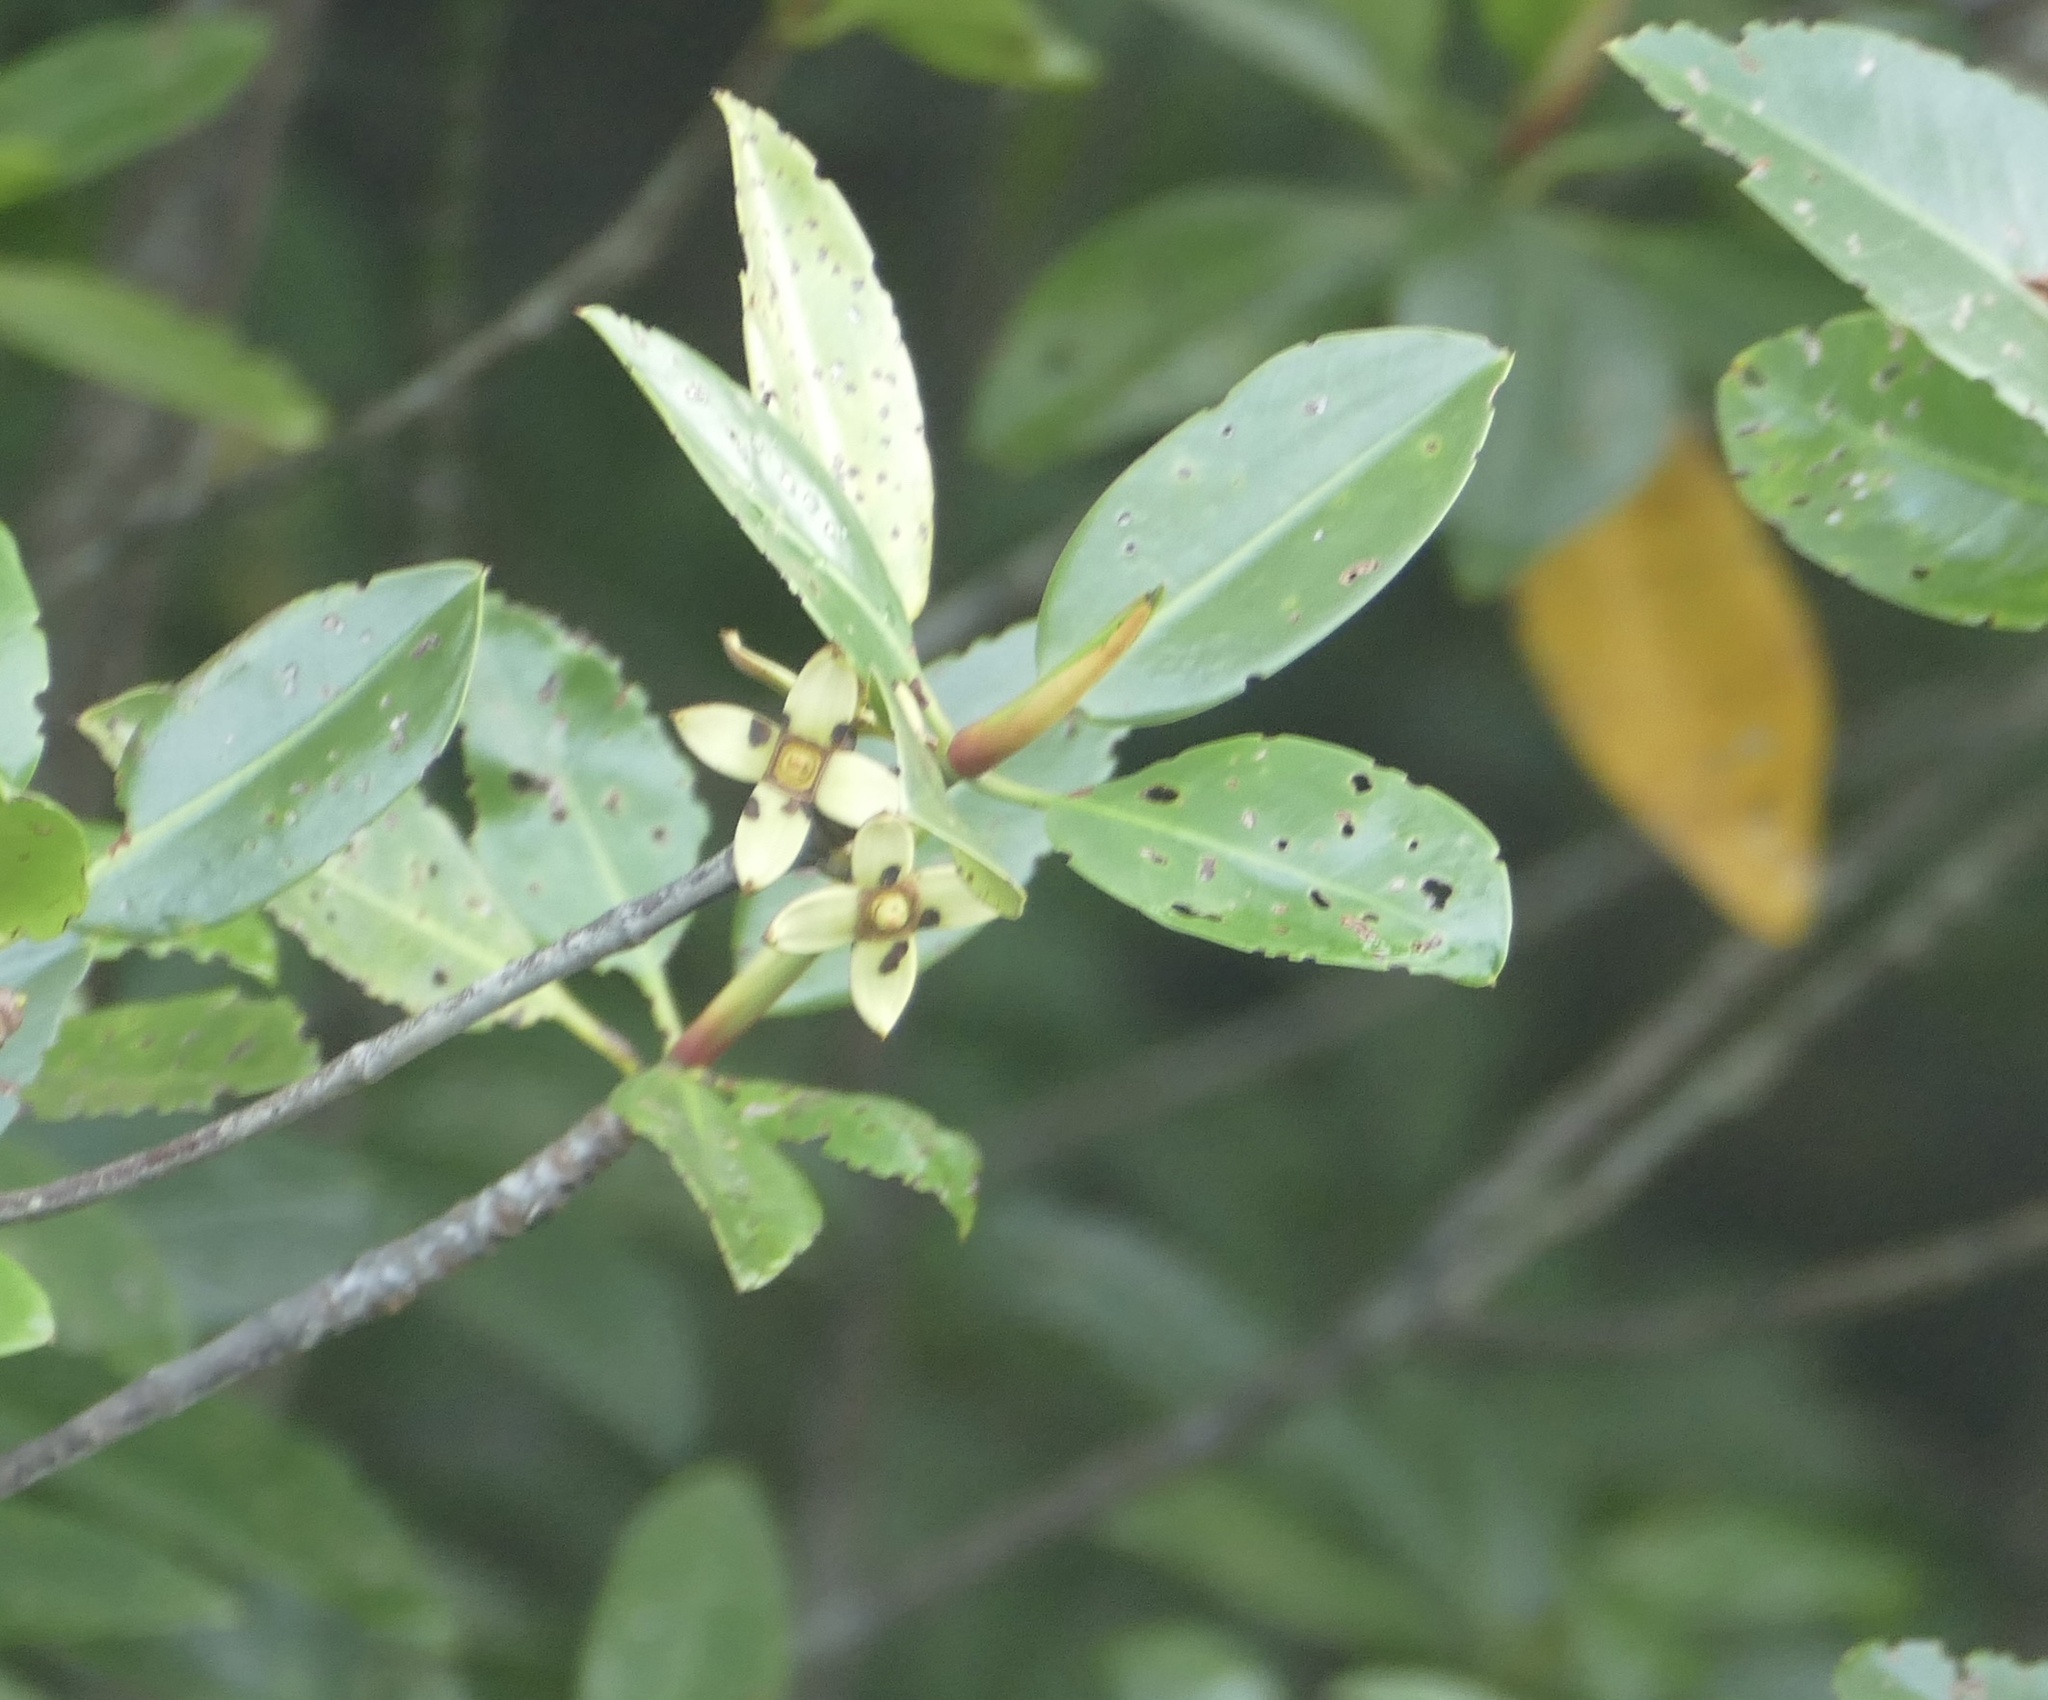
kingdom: Plantae
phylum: Tracheophyta
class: Magnoliopsida
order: Malpighiales
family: Rhizophoraceae
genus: Rhizophora
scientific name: Rhizophora apiculata
